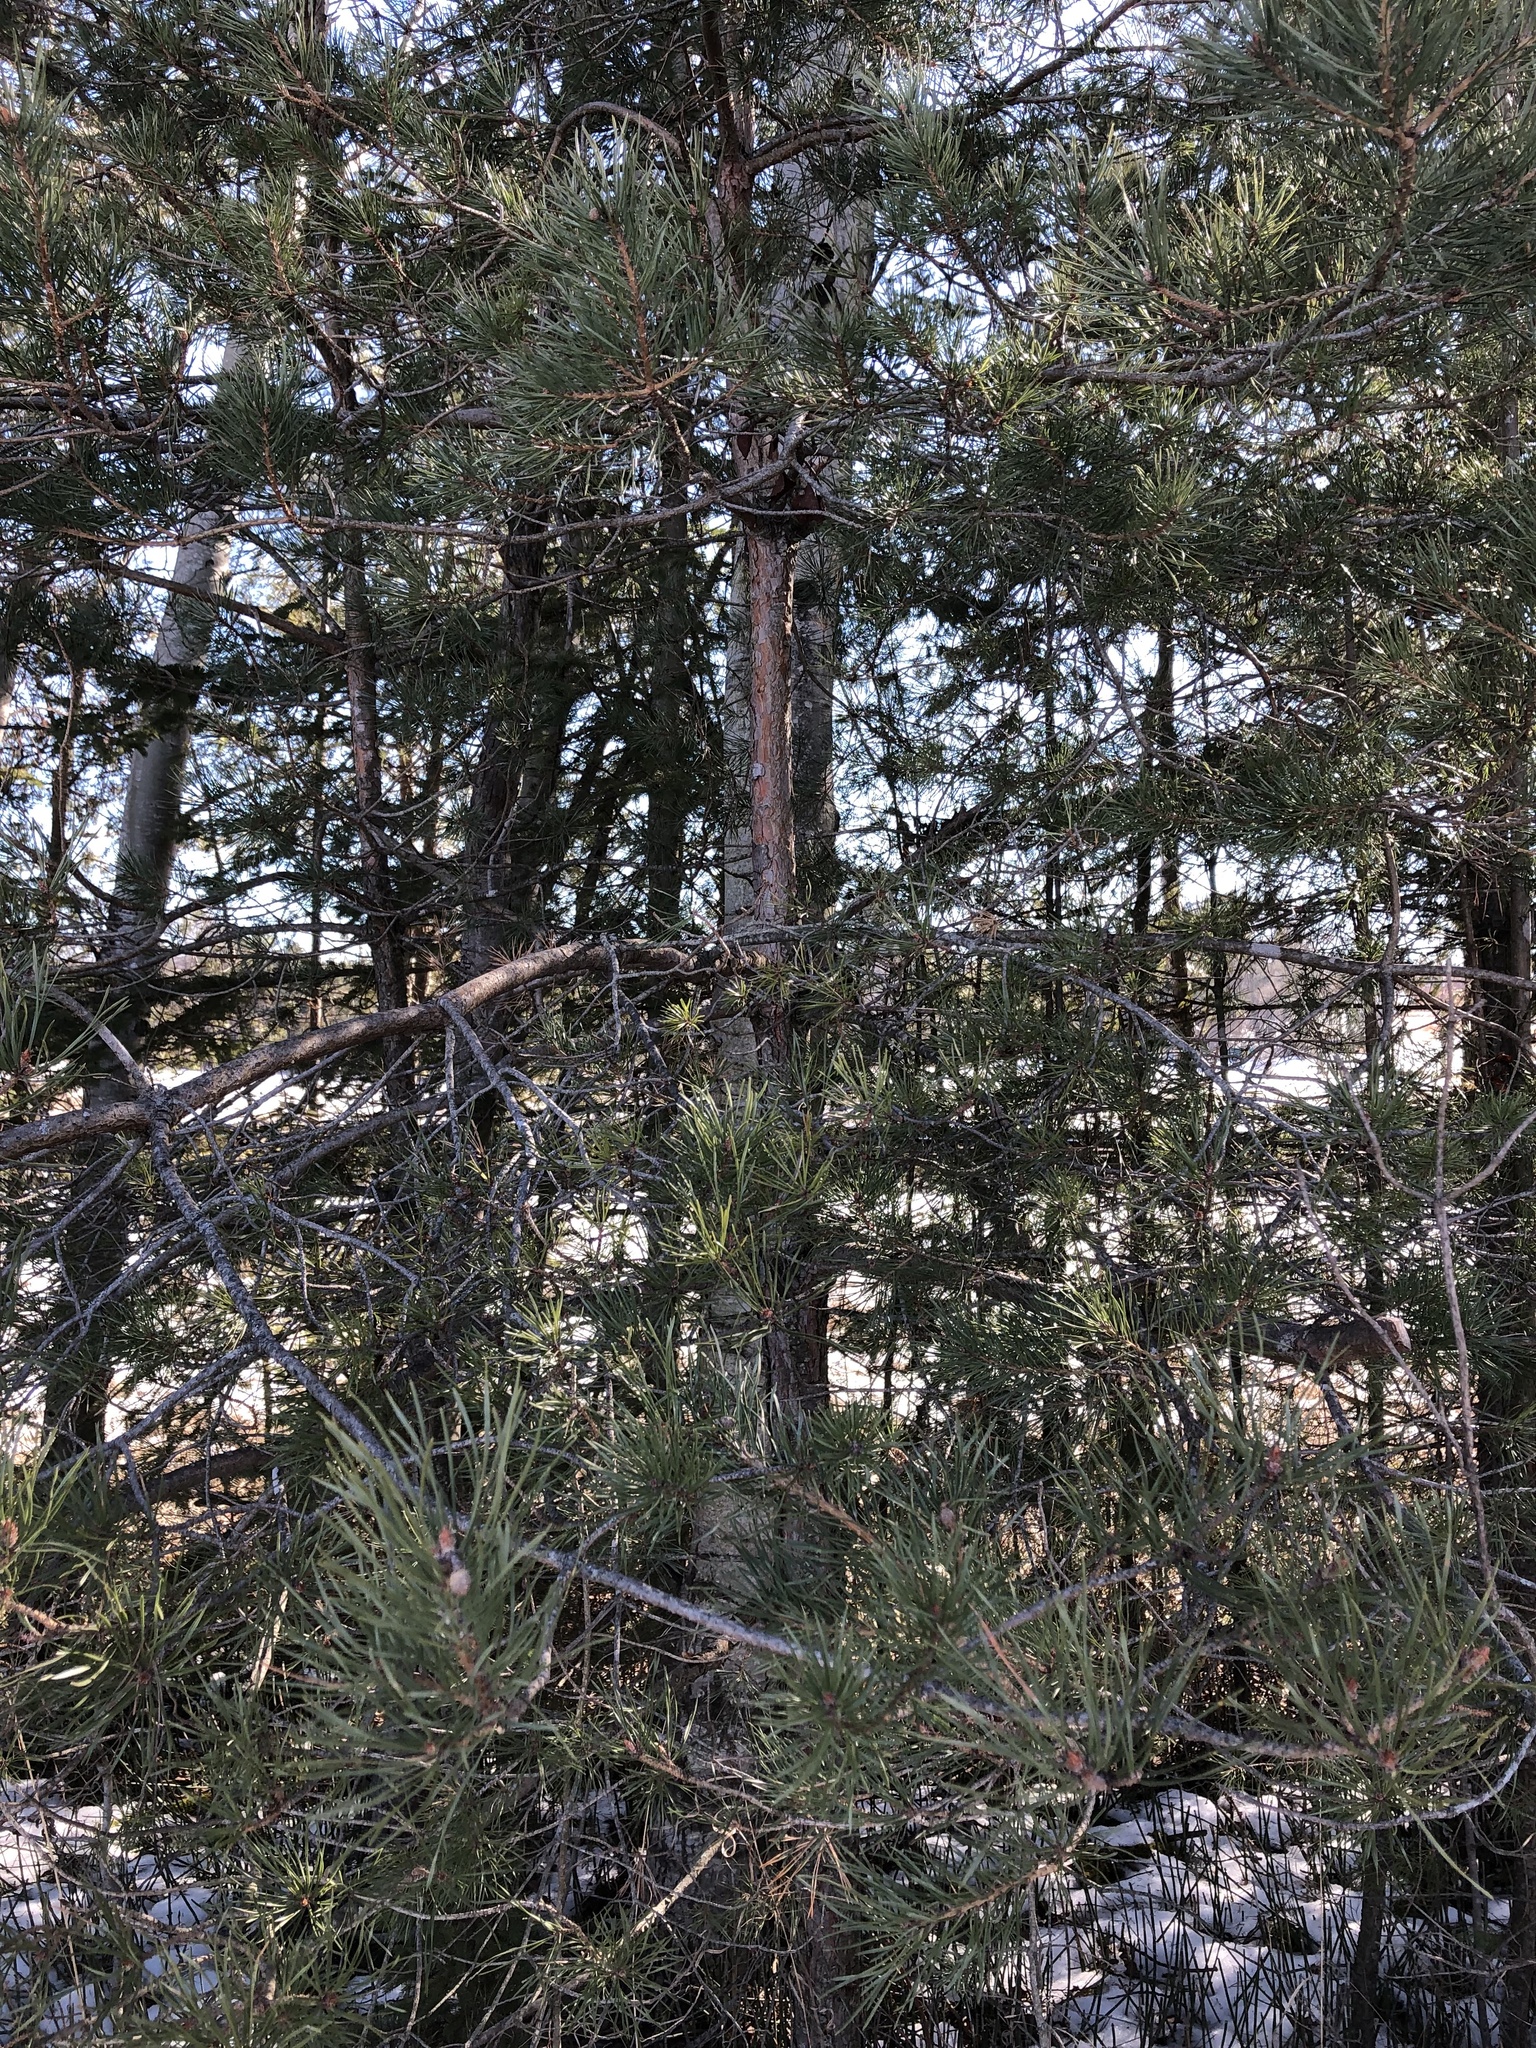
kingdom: Plantae
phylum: Tracheophyta
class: Pinopsida
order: Pinales
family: Pinaceae
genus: Pinus
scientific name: Pinus sylvestris
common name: Scots pine
